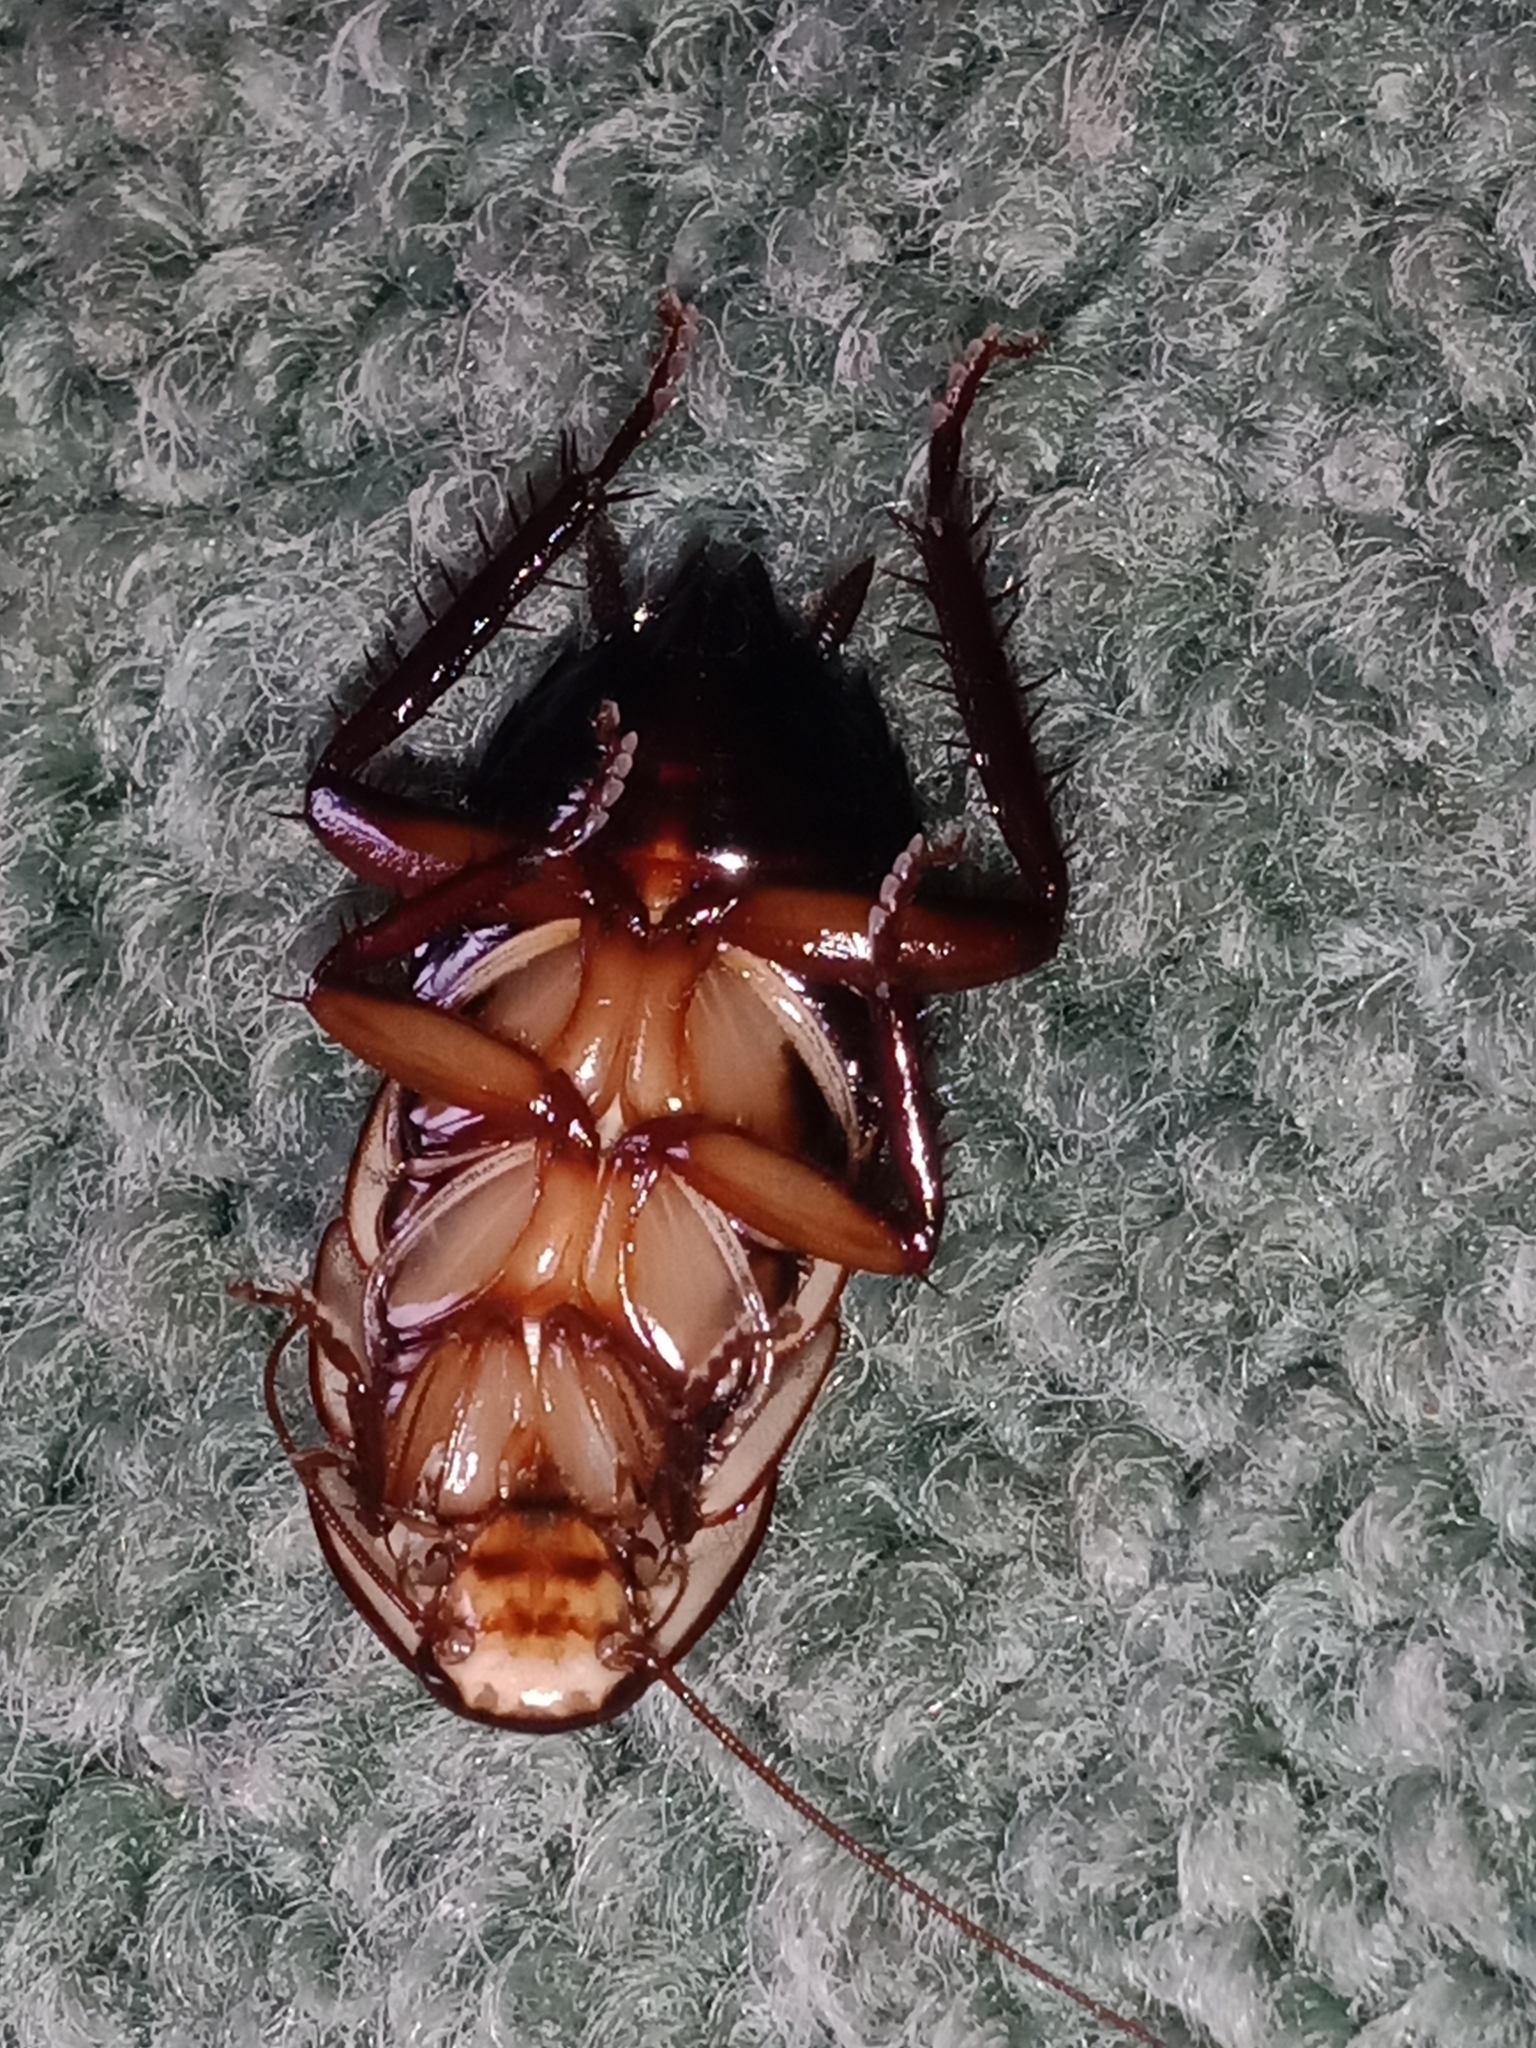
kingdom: Animalia
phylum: Arthropoda
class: Insecta
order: Blattodea
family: Blattidae
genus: Drymaplaneta
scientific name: Drymaplaneta semivitta
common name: Gisborne cockroach
